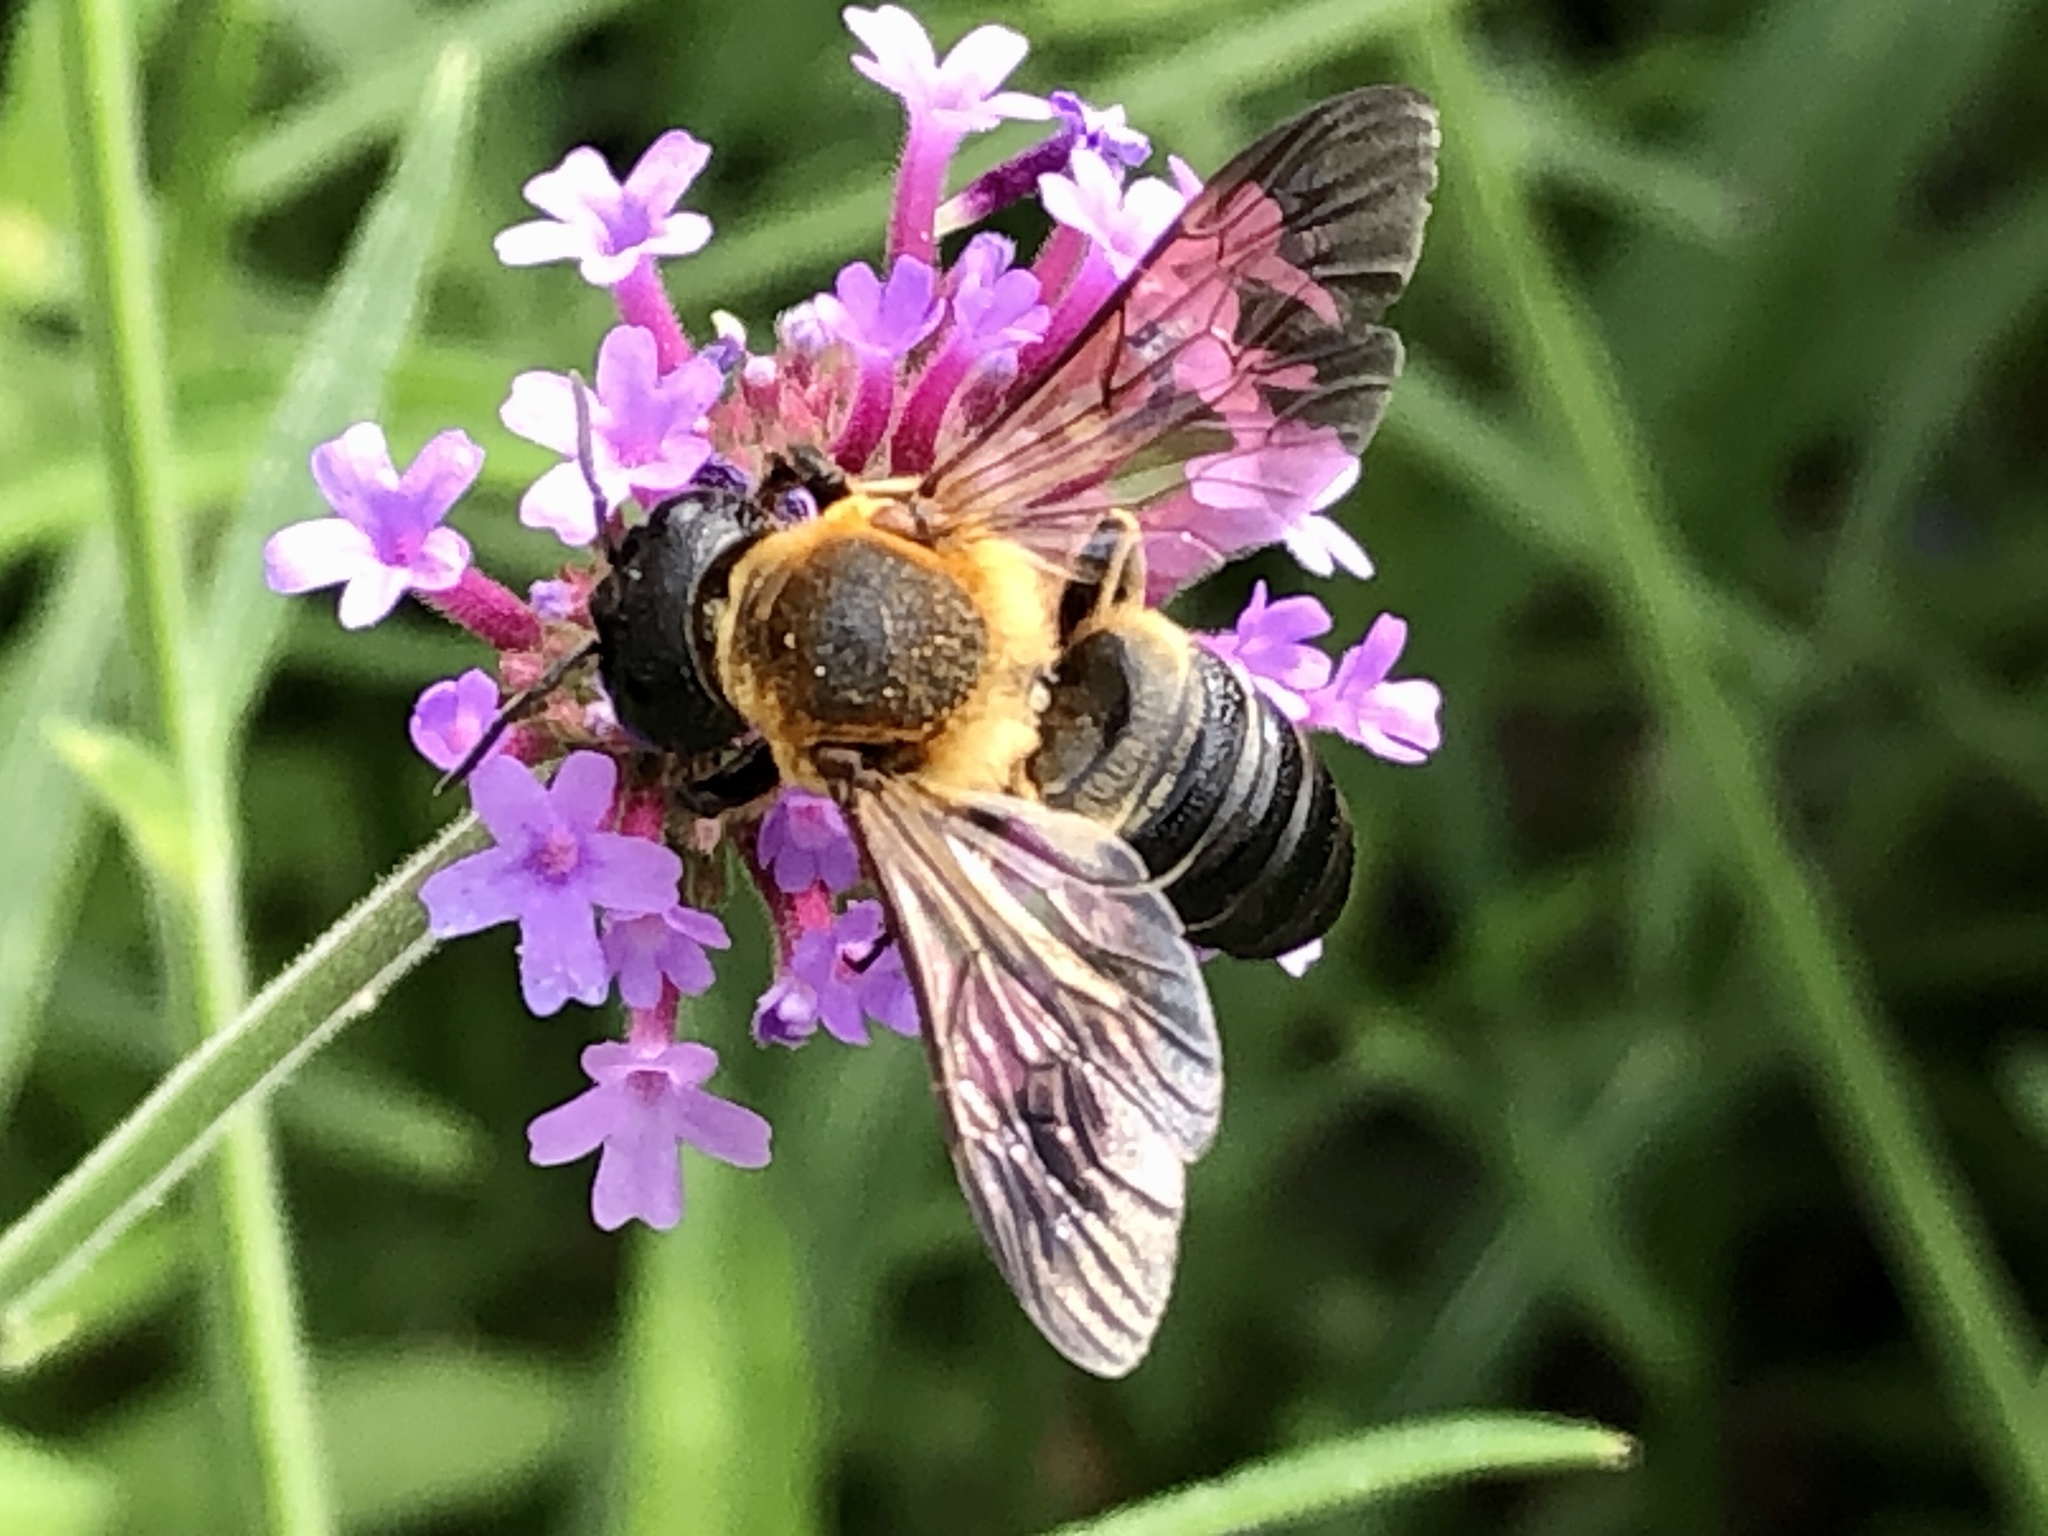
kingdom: Animalia
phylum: Arthropoda
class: Insecta
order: Hymenoptera
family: Megachilidae
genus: Megachile
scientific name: Megachile sculpturalis
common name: Sculptured resin bee
